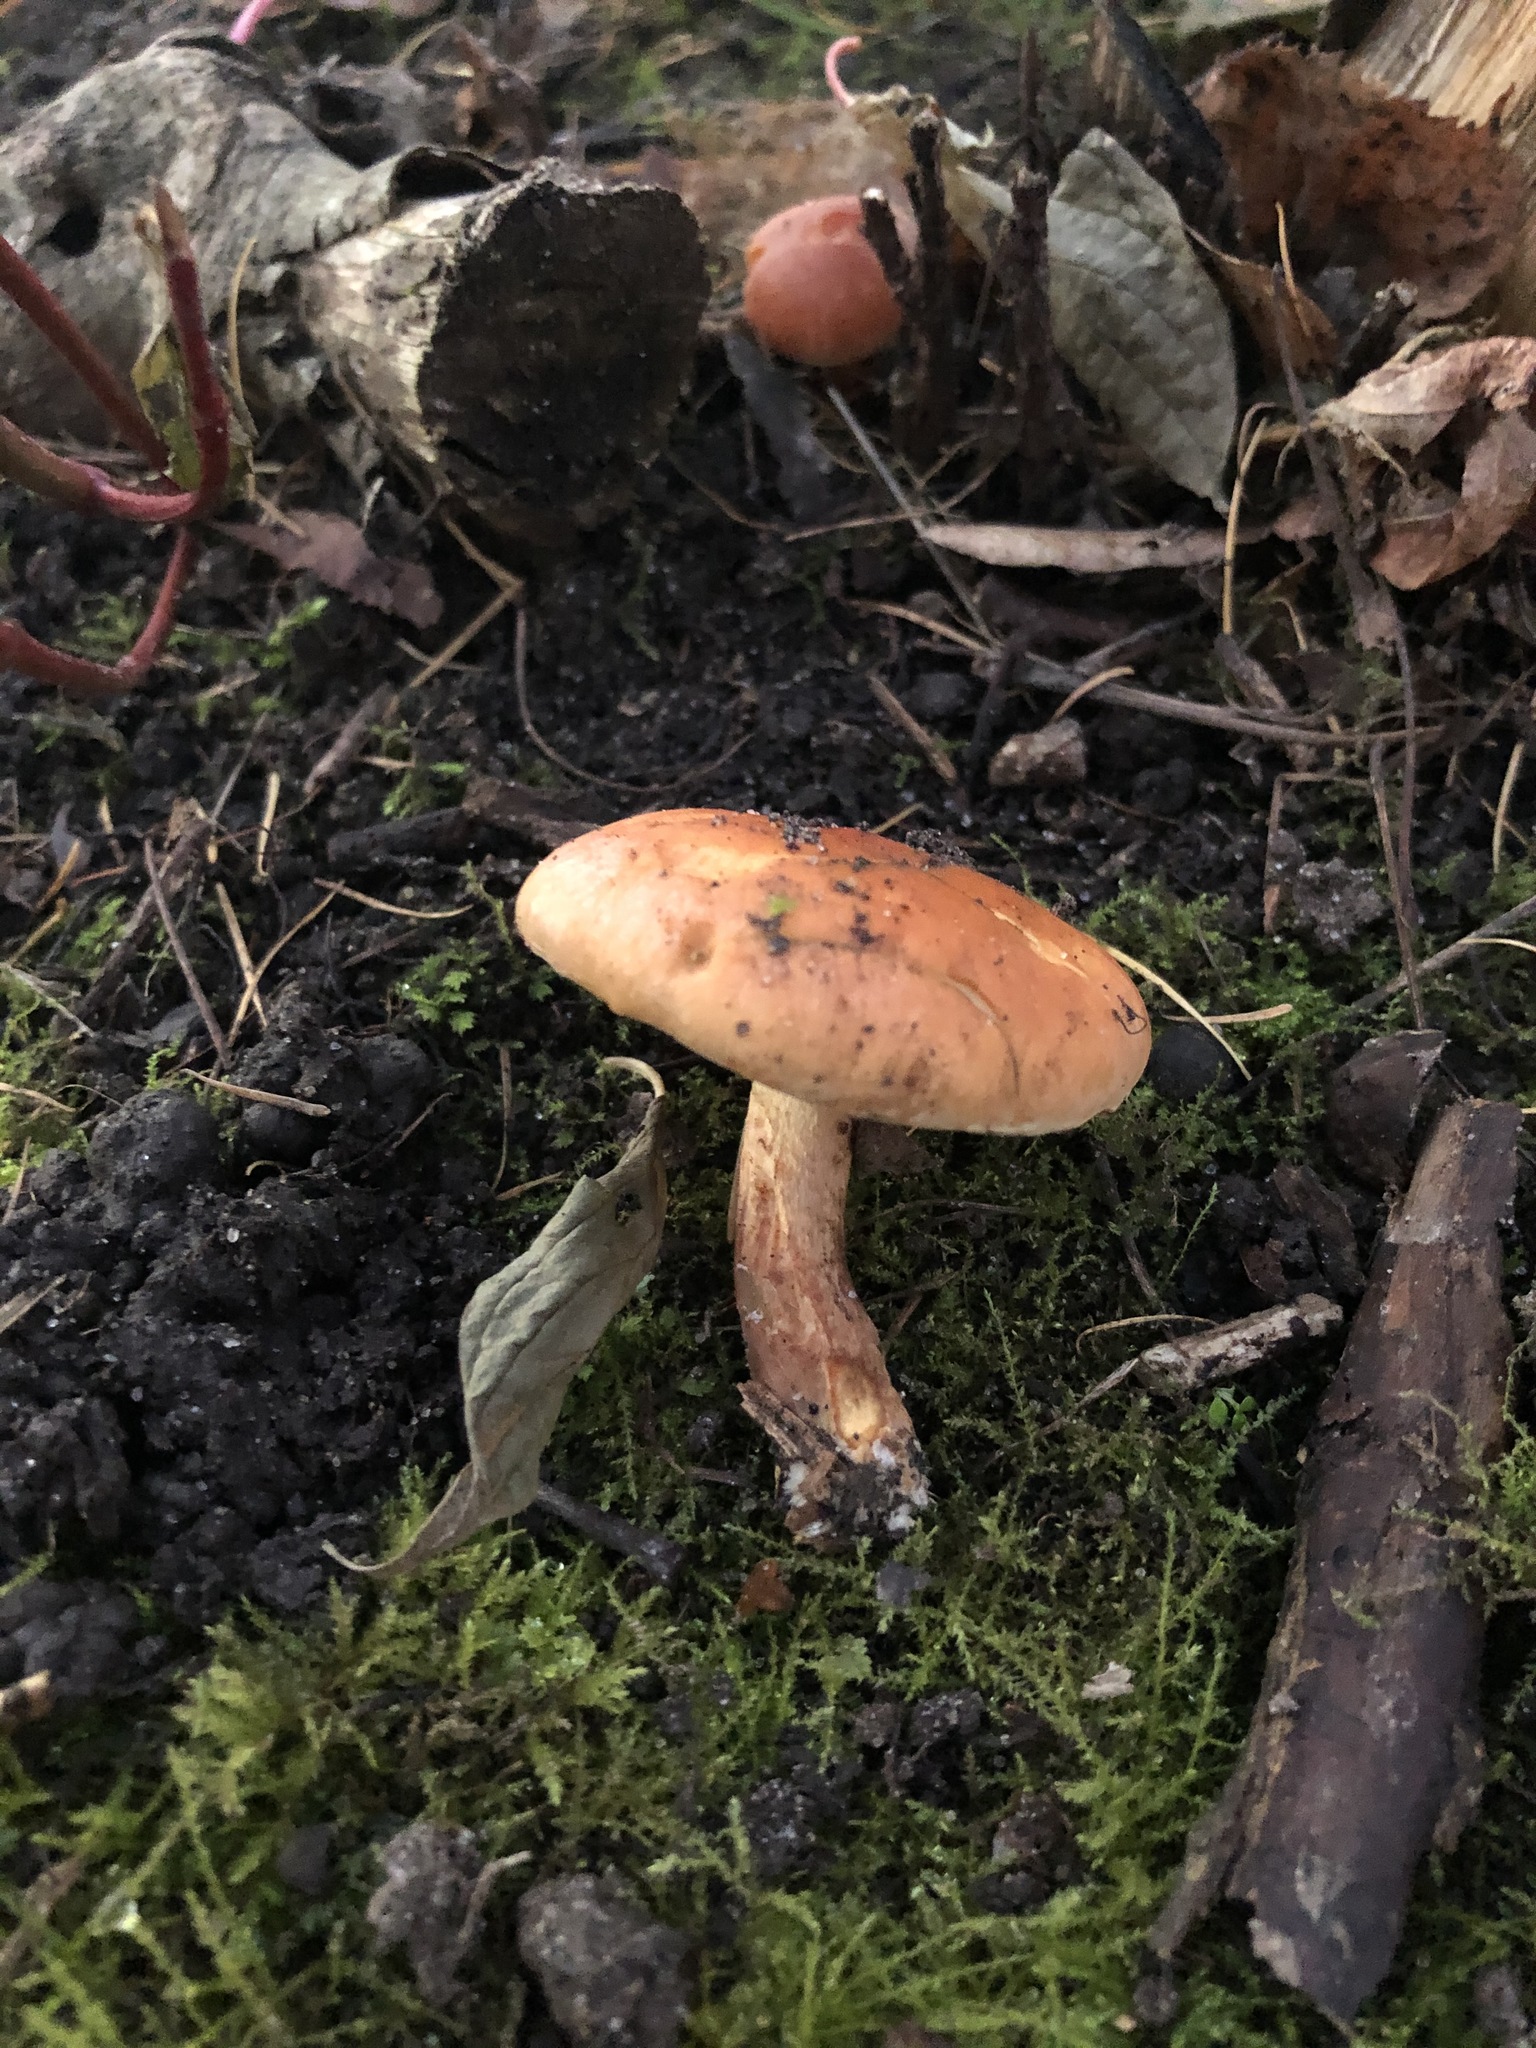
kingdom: Fungi
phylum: Basidiomycota
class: Agaricomycetes
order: Agaricales
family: Strophariaceae
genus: Hypholoma
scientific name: Hypholoma lateritium
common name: Brick caps
